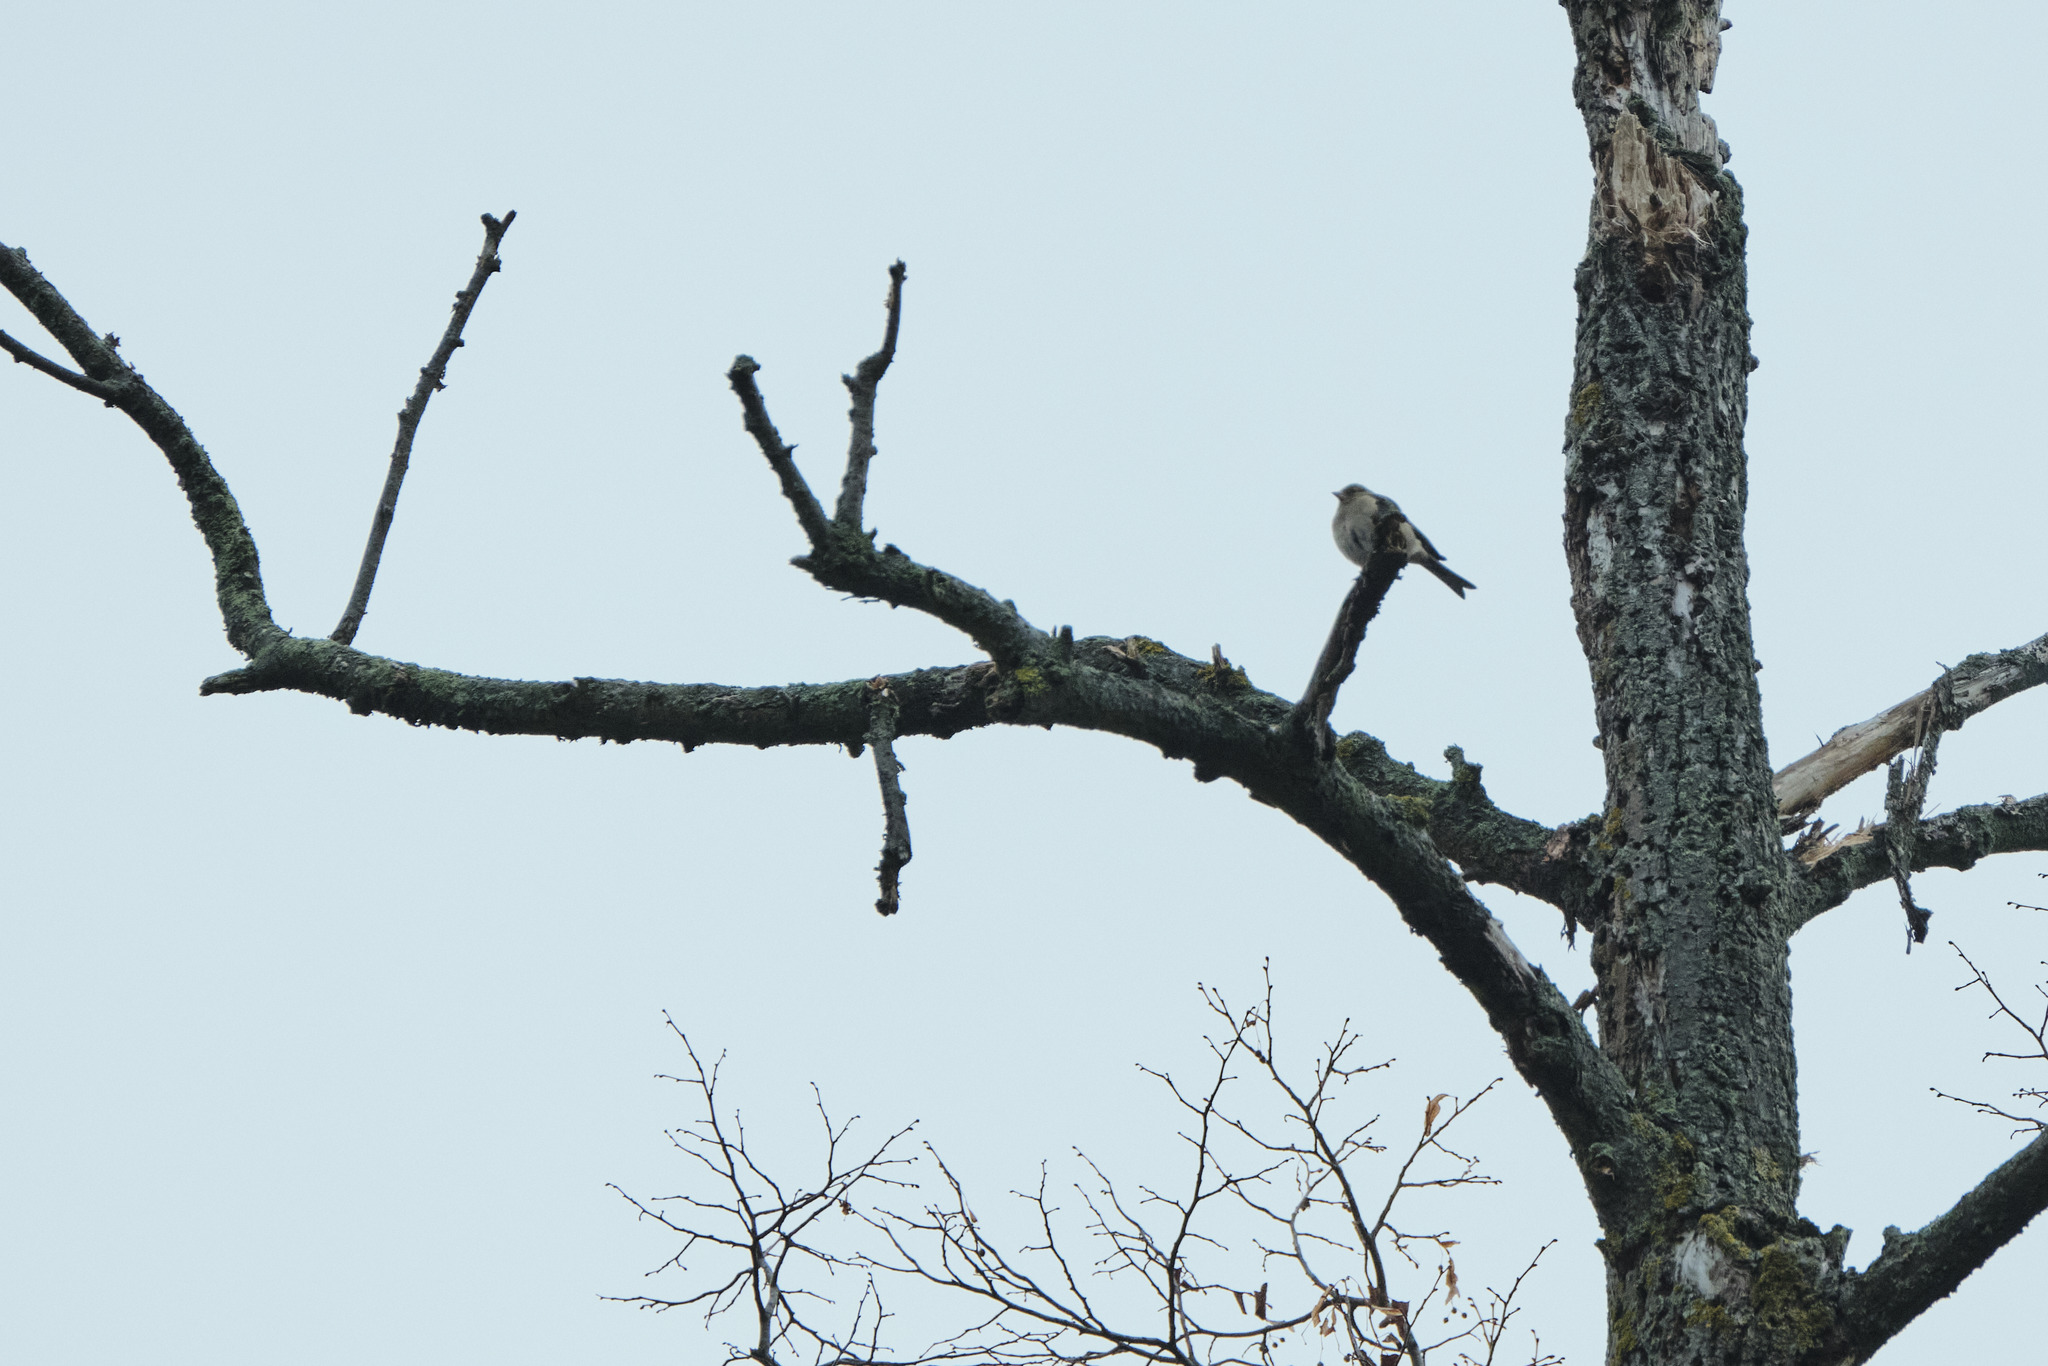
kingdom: Animalia
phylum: Chordata
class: Aves
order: Passeriformes
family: Fringillidae
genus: Fringilla
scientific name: Fringilla coelebs
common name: Common chaffinch
